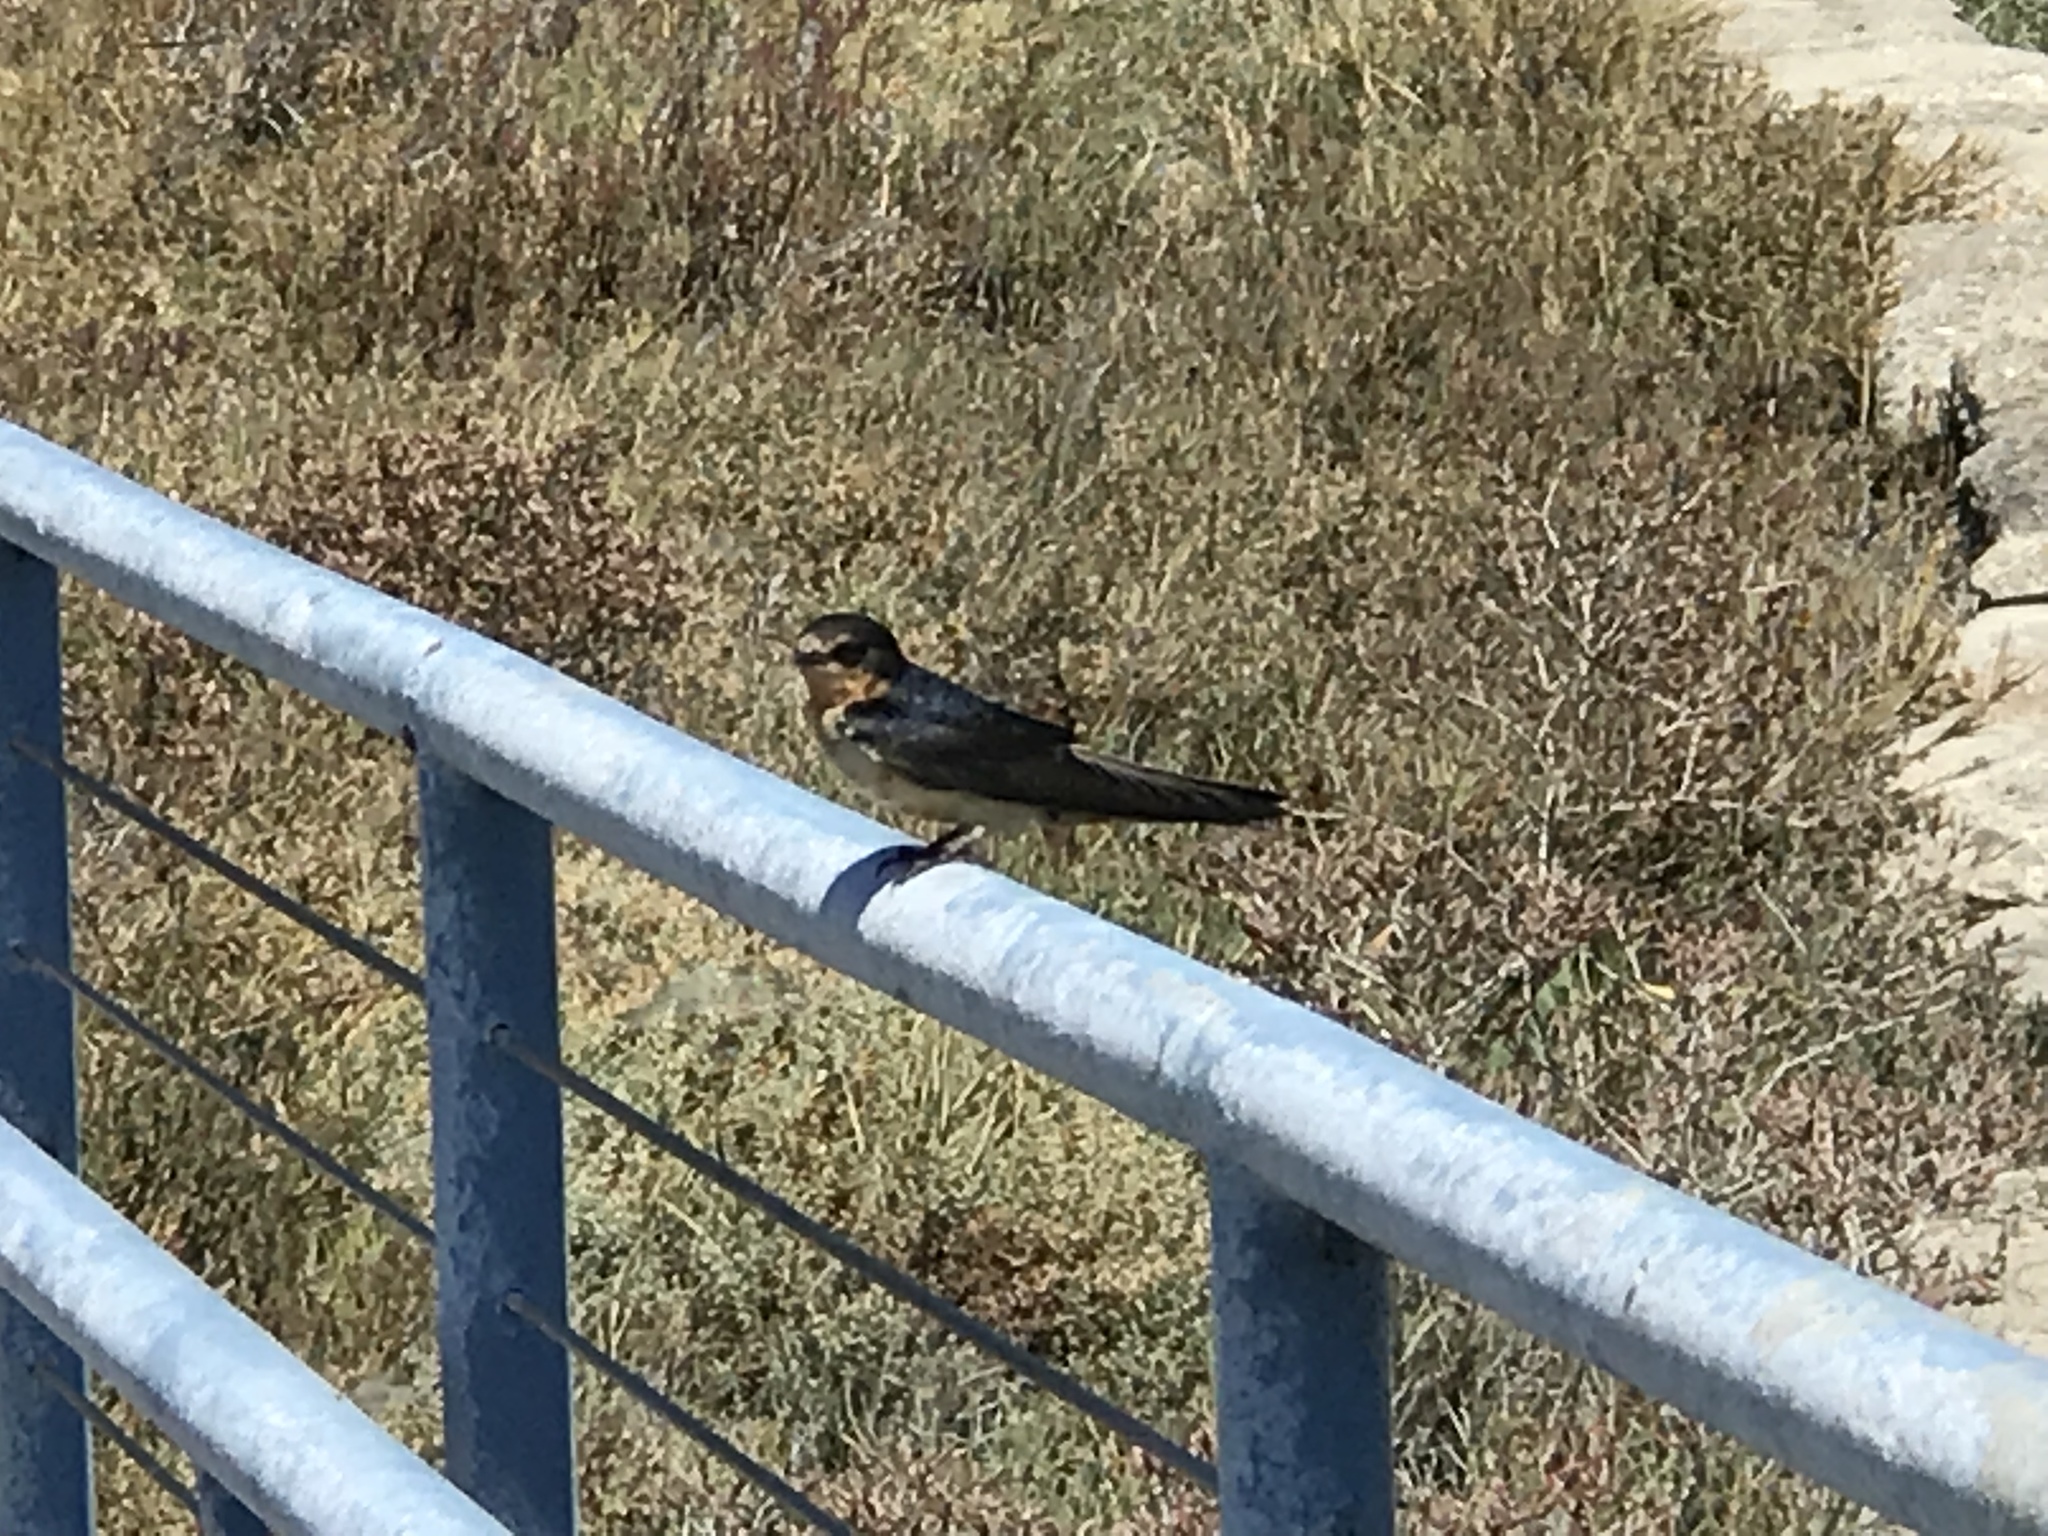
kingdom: Animalia
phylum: Chordata
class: Aves
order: Passeriformes
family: Hirundinidae
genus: Hirundo
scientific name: Hirundo rustica
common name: Barn swallow
